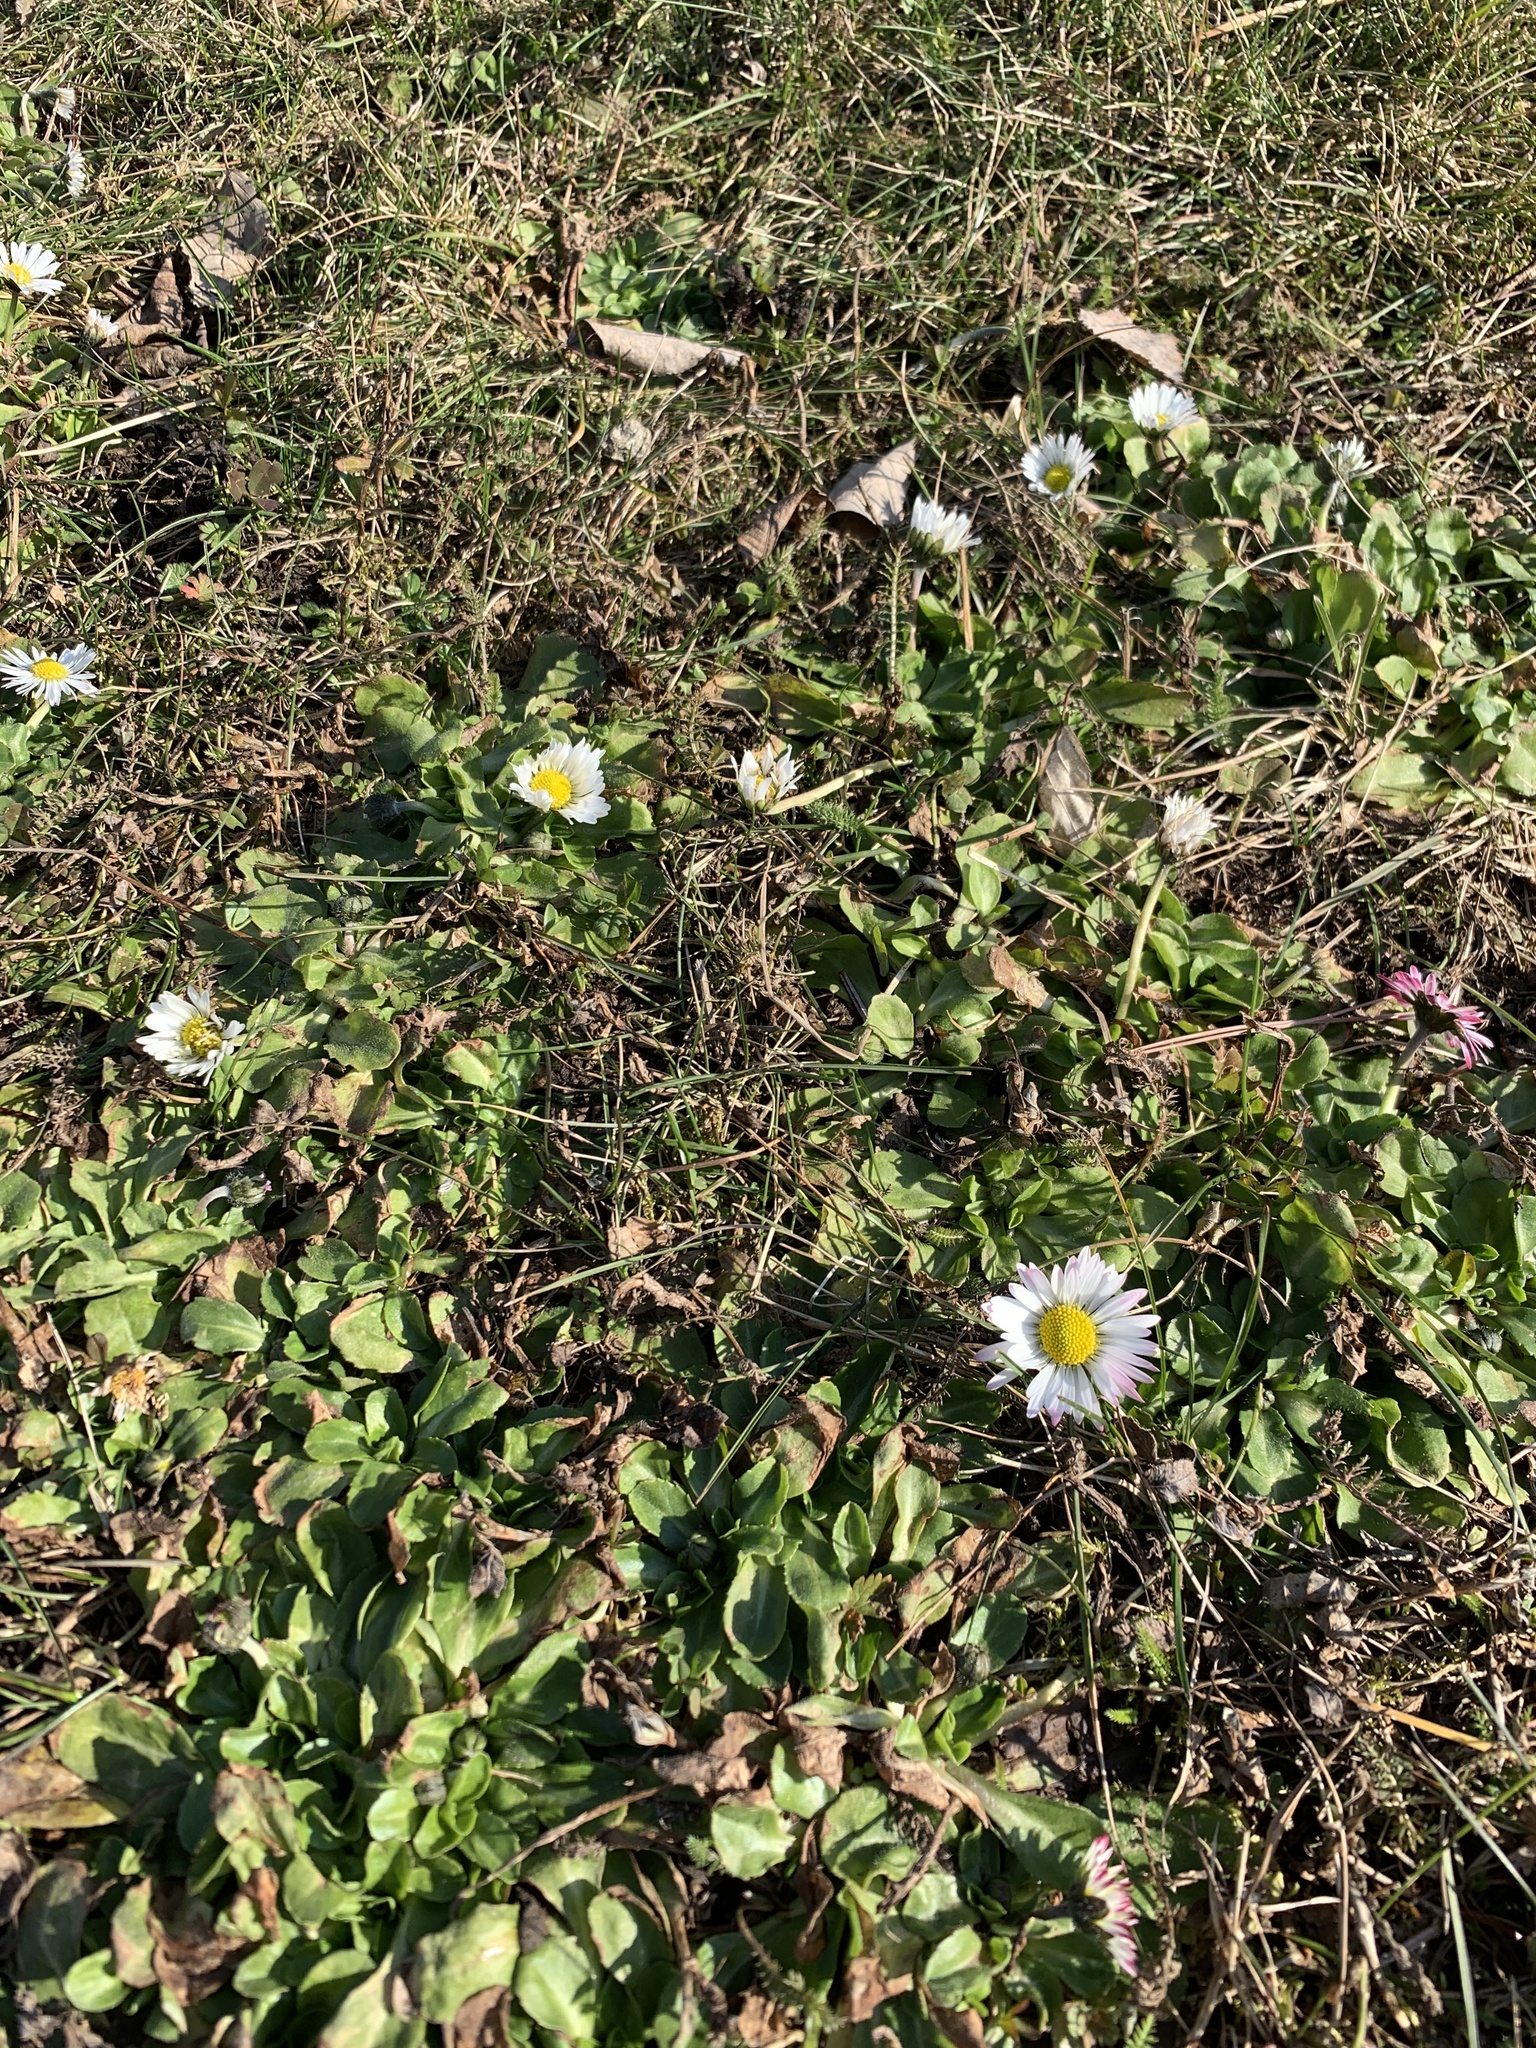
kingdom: Plantae
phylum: Tracheophyta
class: Magnoliopsida
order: Asterales
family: Asteraceae
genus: Bellis
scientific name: Bellis perennis
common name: Lawndaisy
